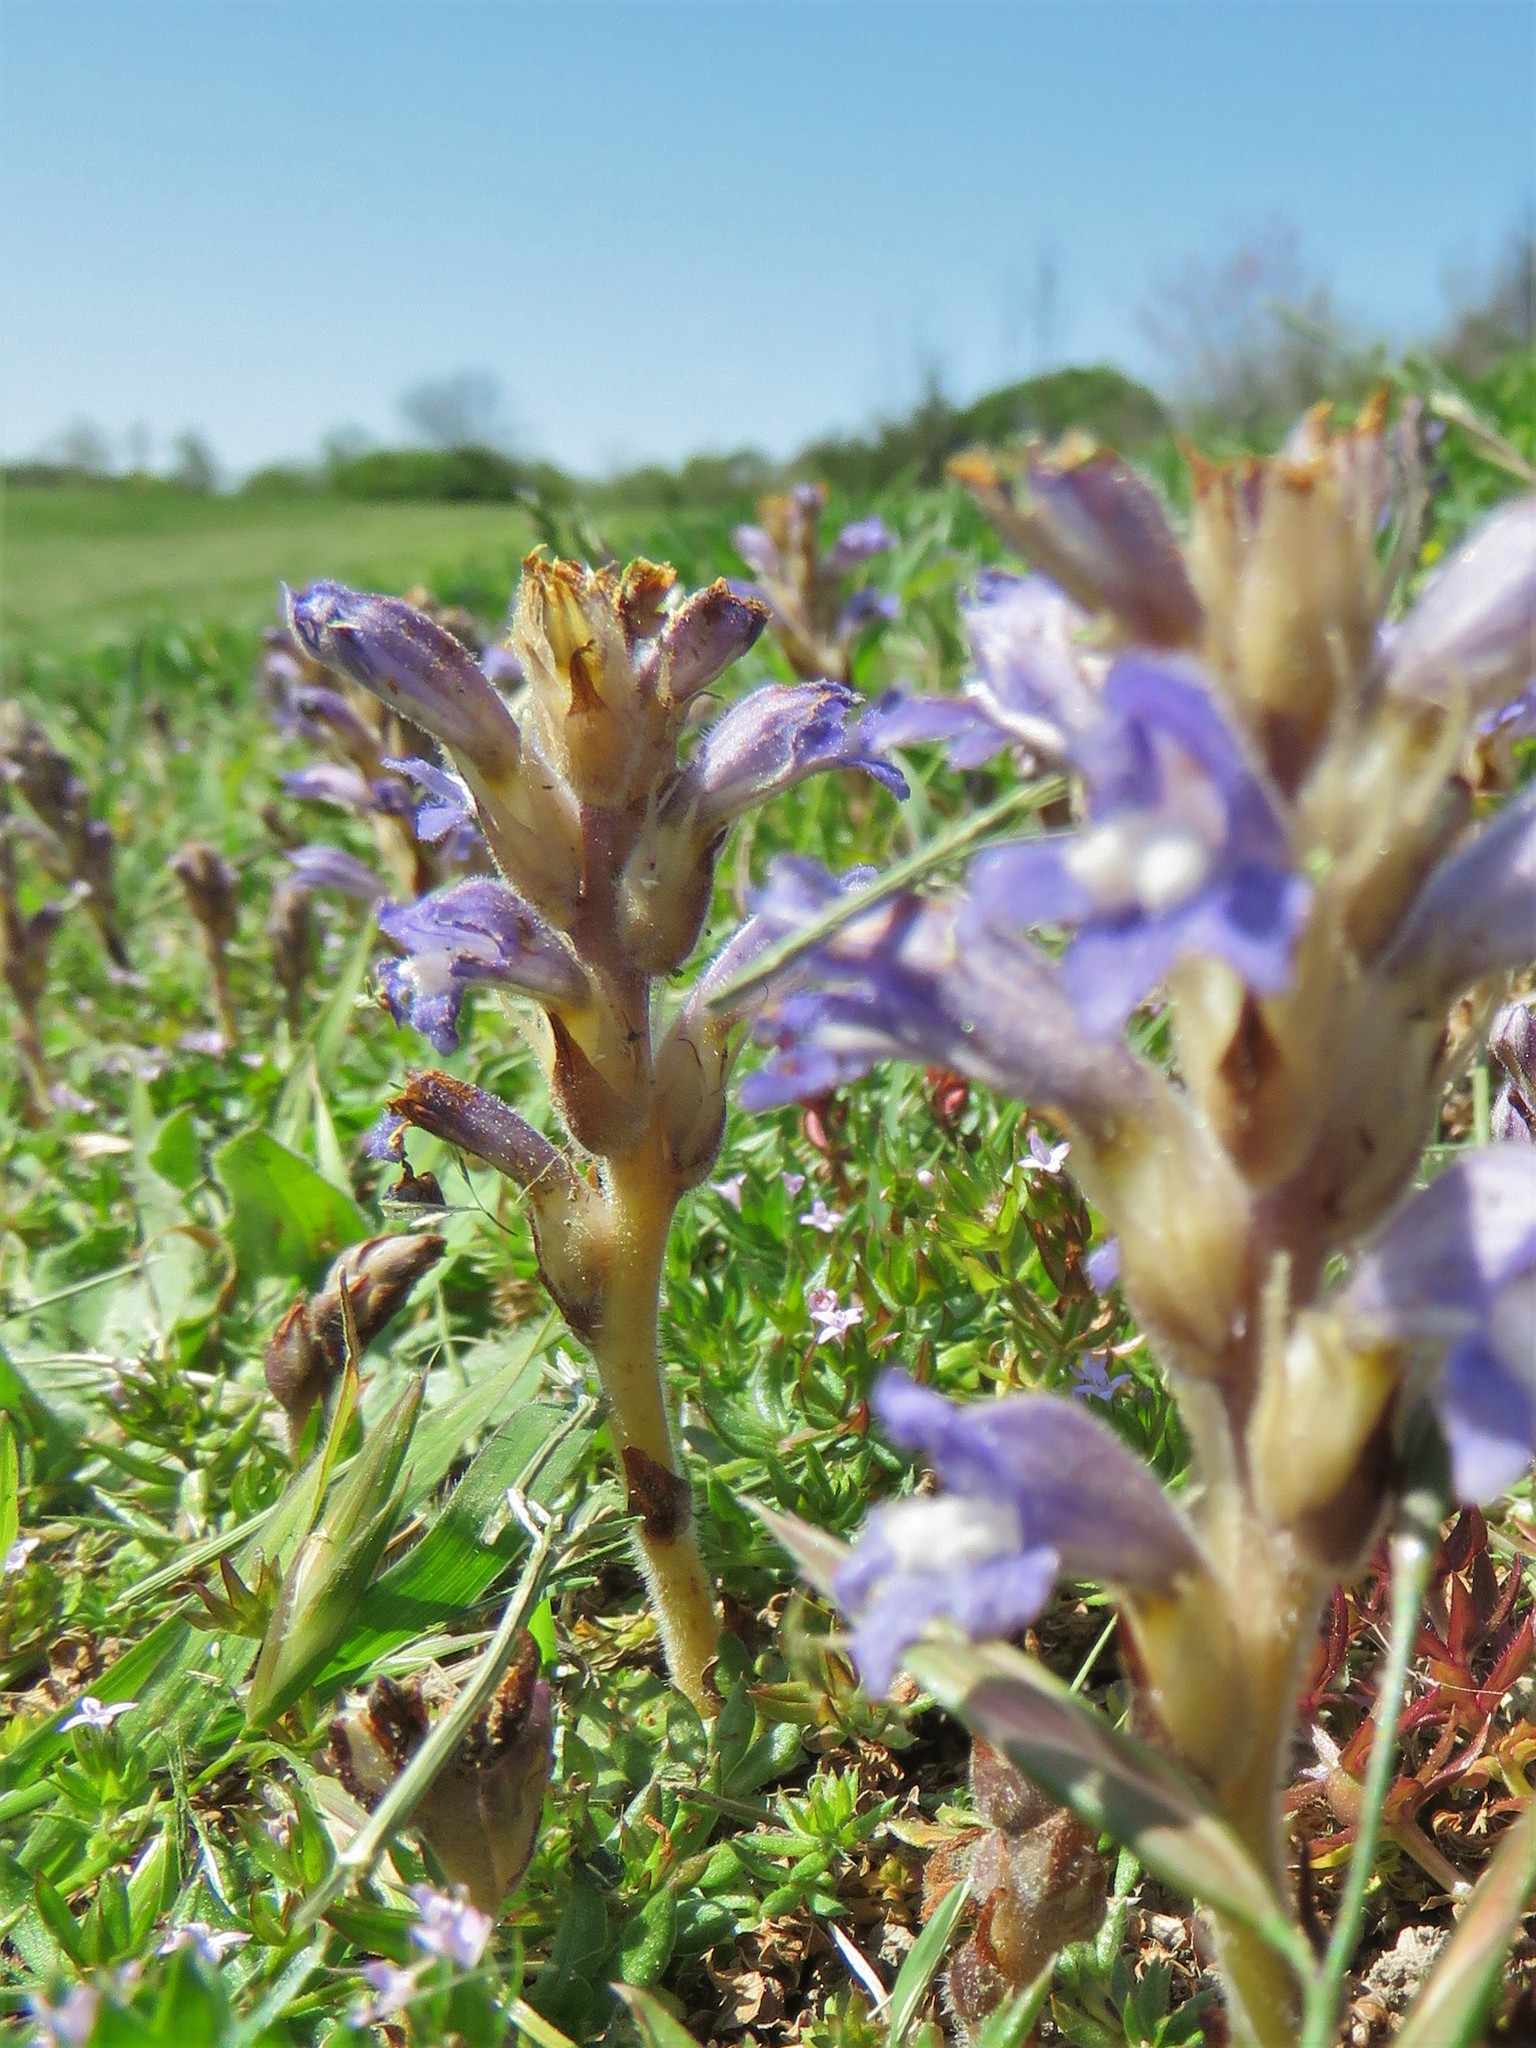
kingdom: Plantae
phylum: Tracheophyta
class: Magnoliopsida
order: Lamiales
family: Orobanchaceae
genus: Phelipanche
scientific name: Phelipanche ramosa
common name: Branched broomrape
